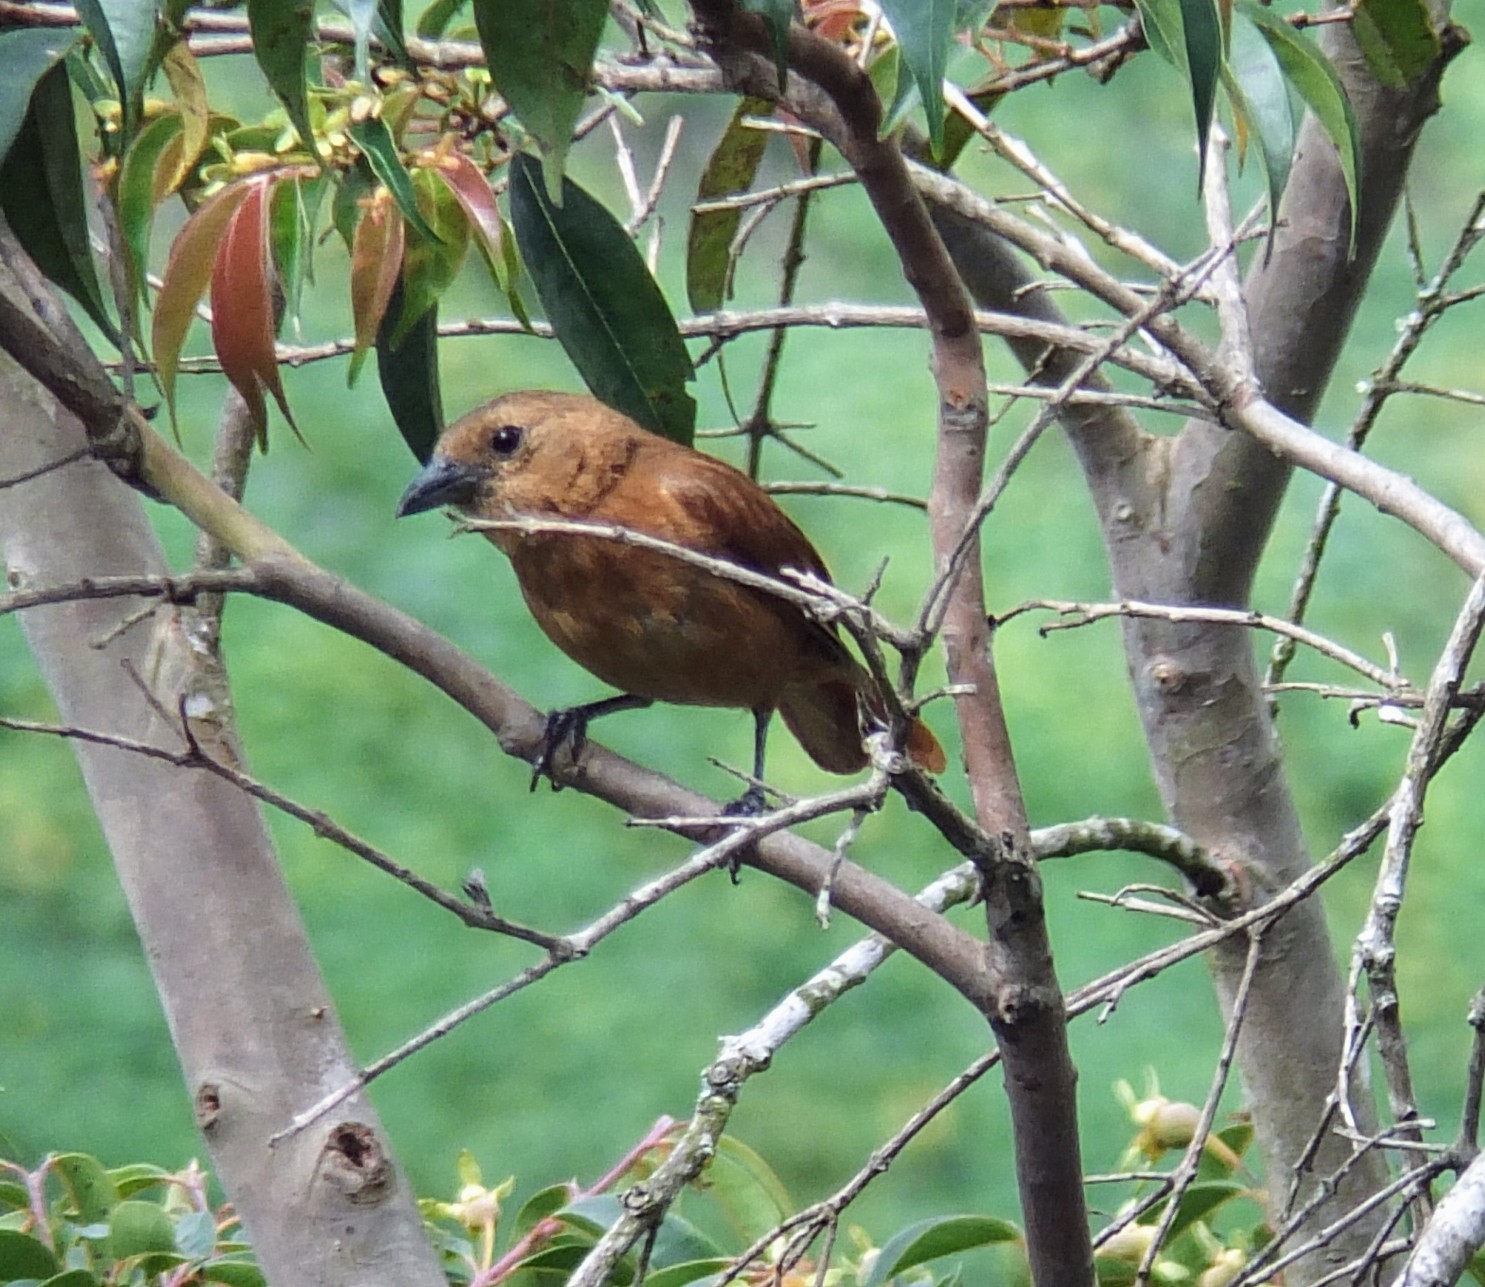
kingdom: Animalia
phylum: Chordata
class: Aves
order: Passeriformes
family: Thraupidae
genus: Tachyphonus
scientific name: Tachyphonus rufus
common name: White-lined tanager
